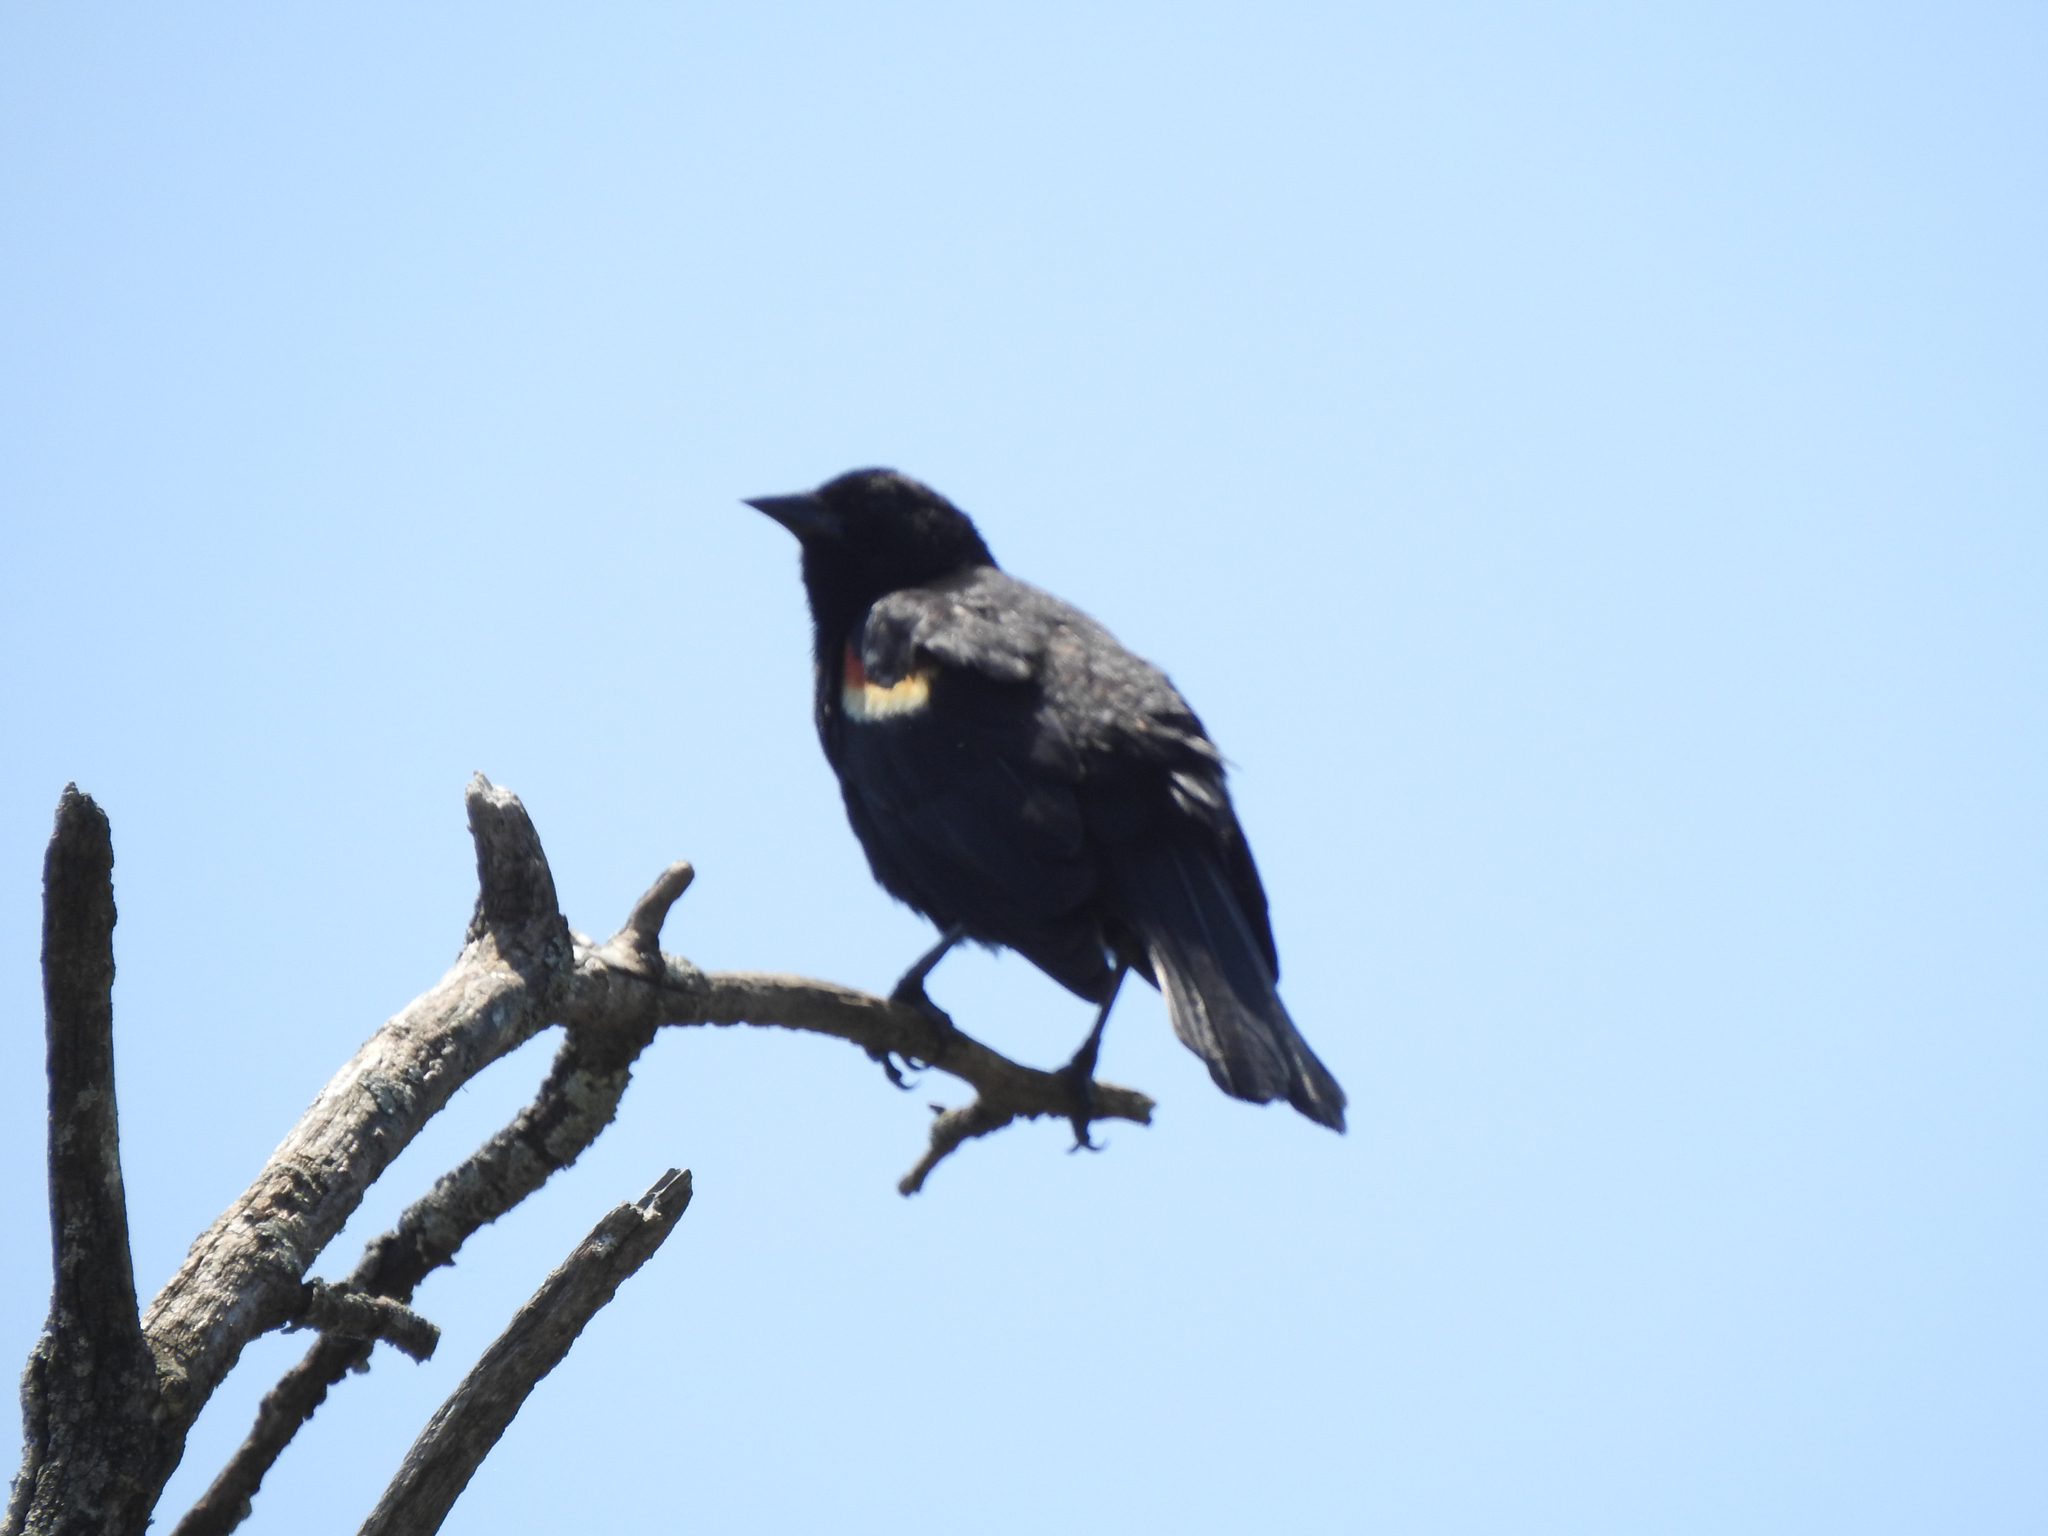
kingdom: Animalia
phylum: Chordata
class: Aves
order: Passeriformes
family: Icteridae
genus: Agelaius
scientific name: Agelaius phoeniceus
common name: Red-winged blackbird
